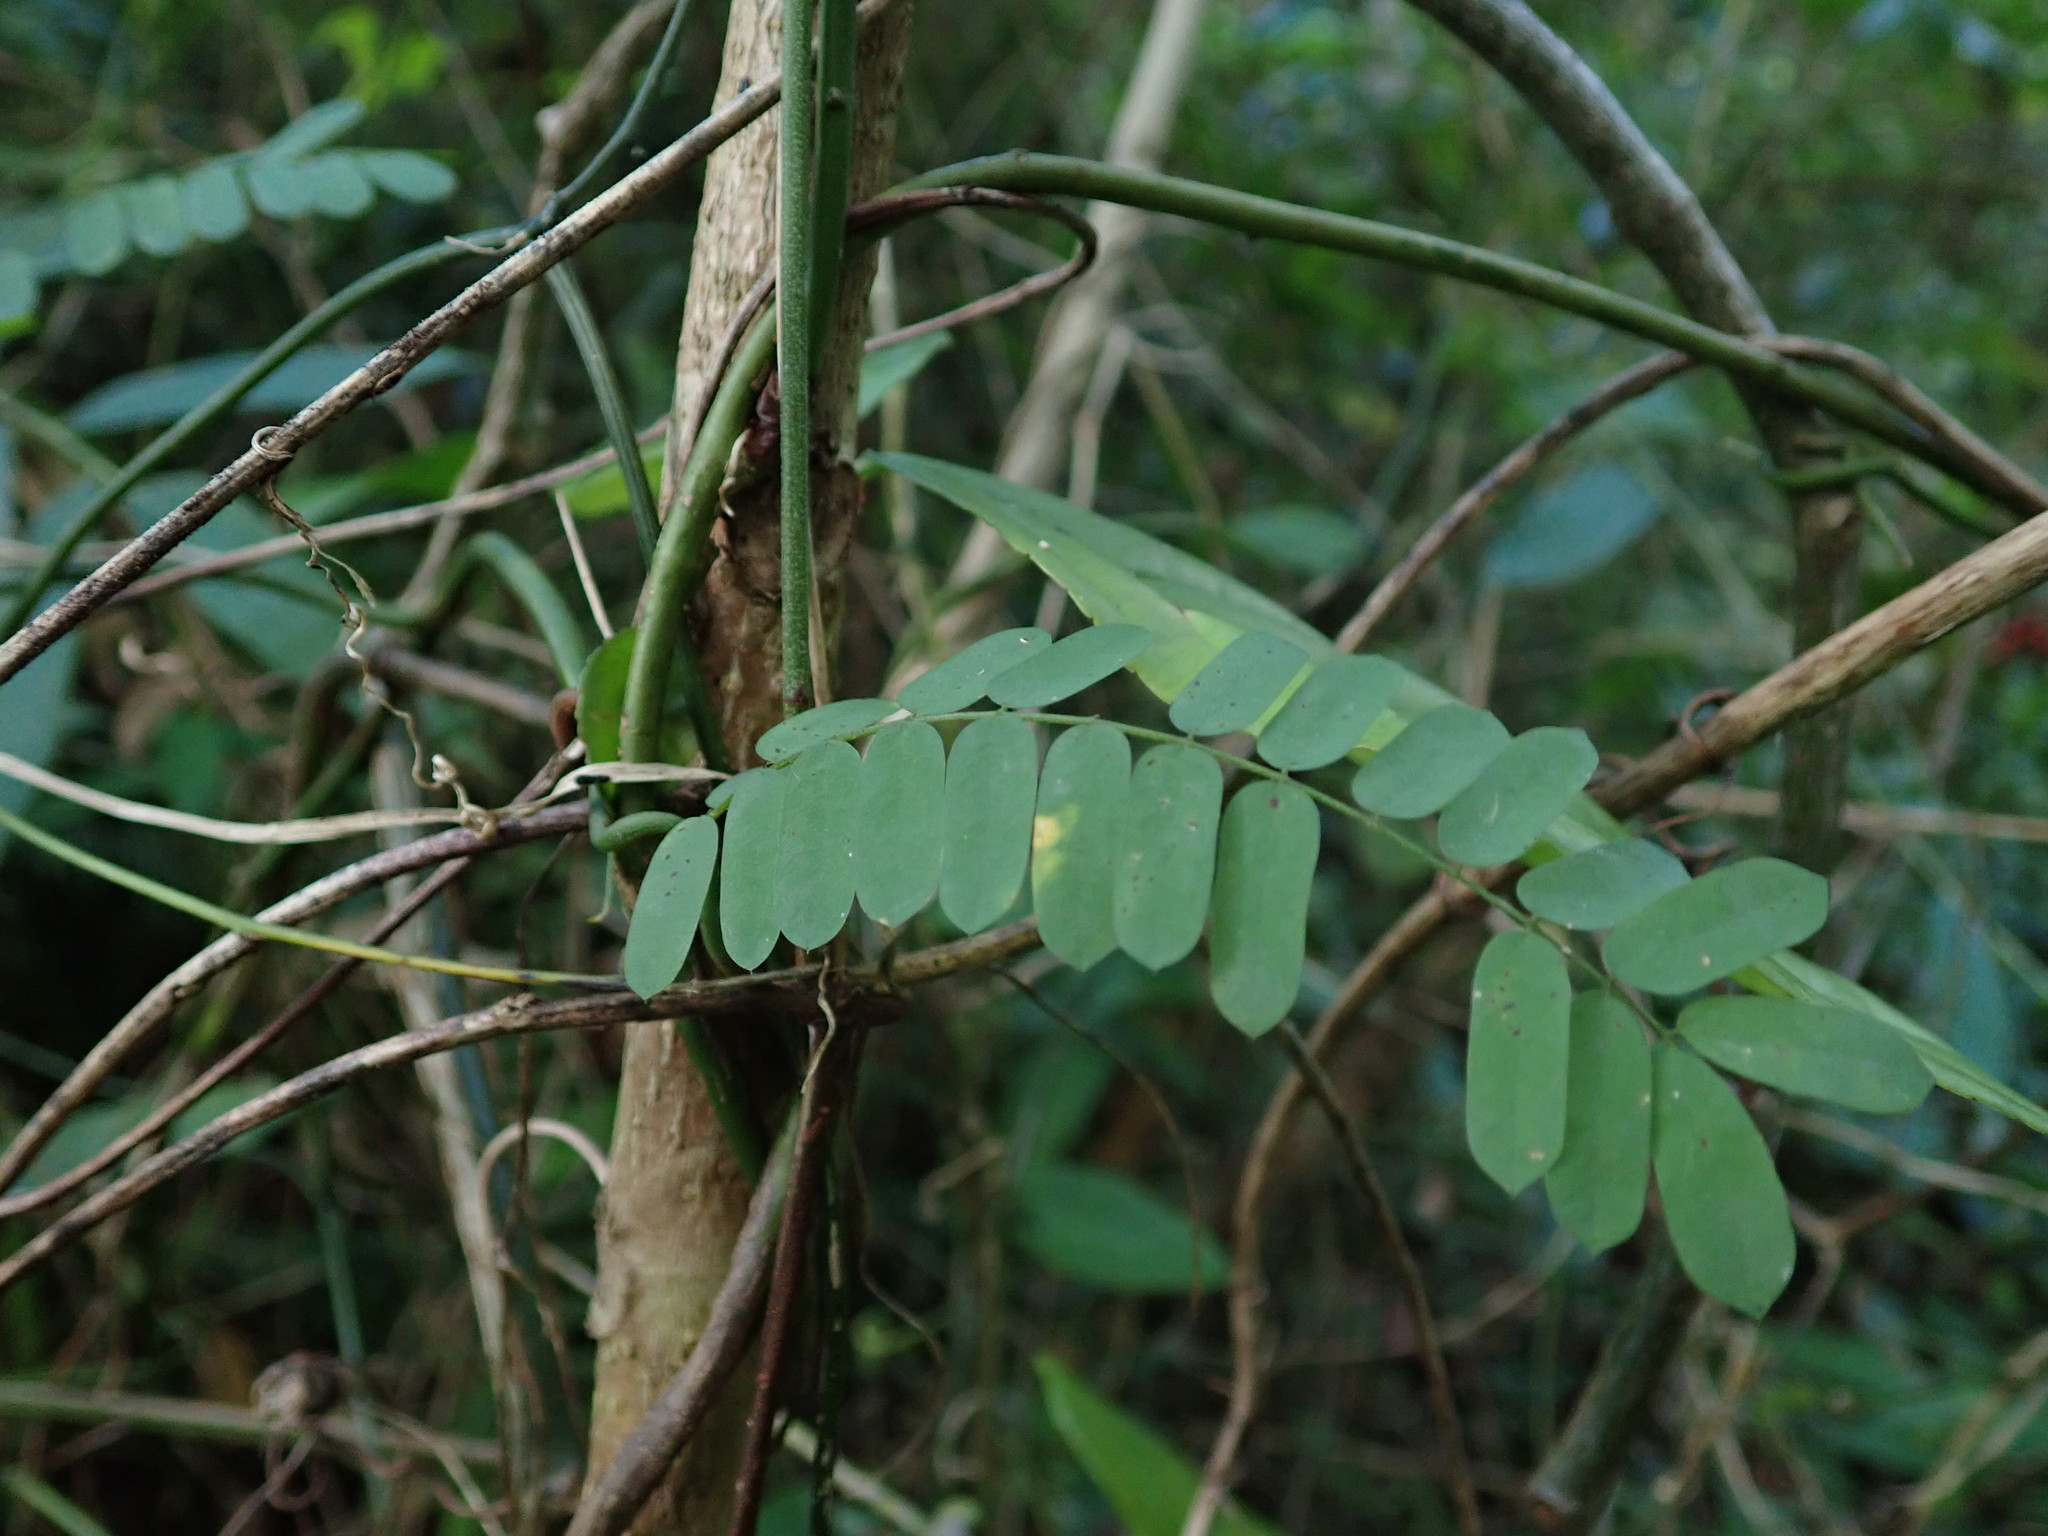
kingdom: Plantae
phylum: Tracheophyta
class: Magnoliopsida
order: Fabales
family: Fabaceae
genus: Abrus
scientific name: Abrus precatorius
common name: Rosarypea
